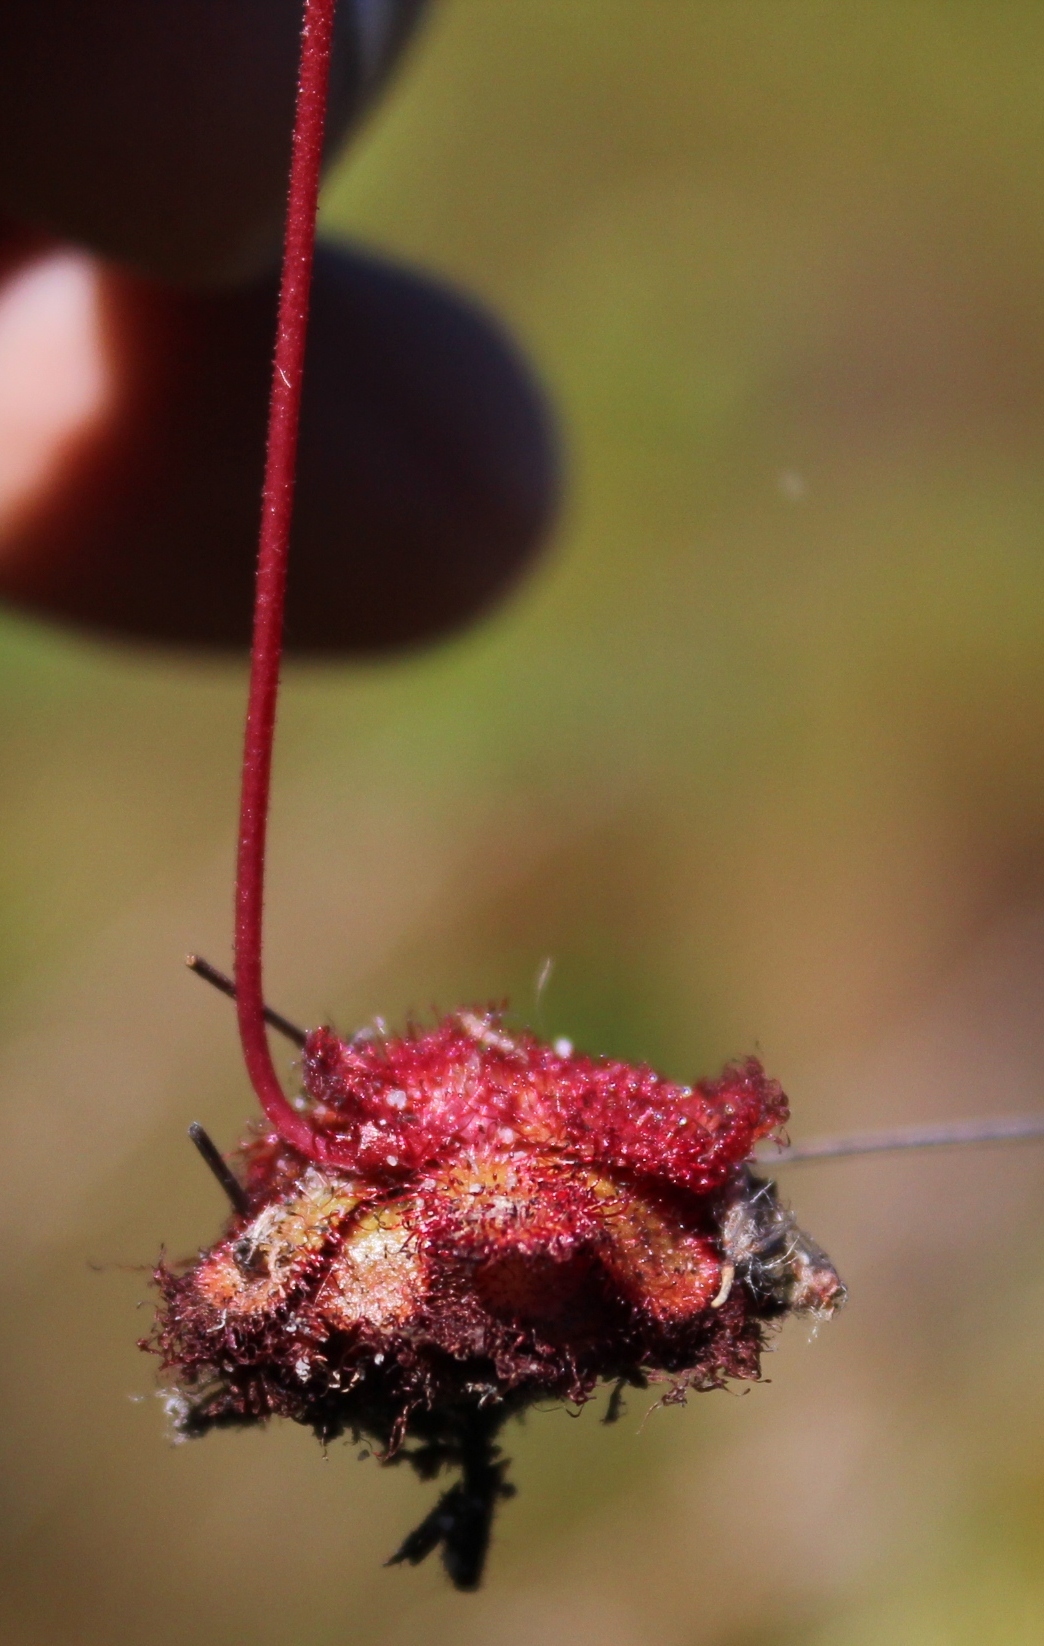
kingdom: Plantae
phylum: Tracheophyta
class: Magnoliopsida
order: Caryophyllales
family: Droseraceae
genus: Drosera
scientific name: Drosera aliciae
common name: Alice sundew
